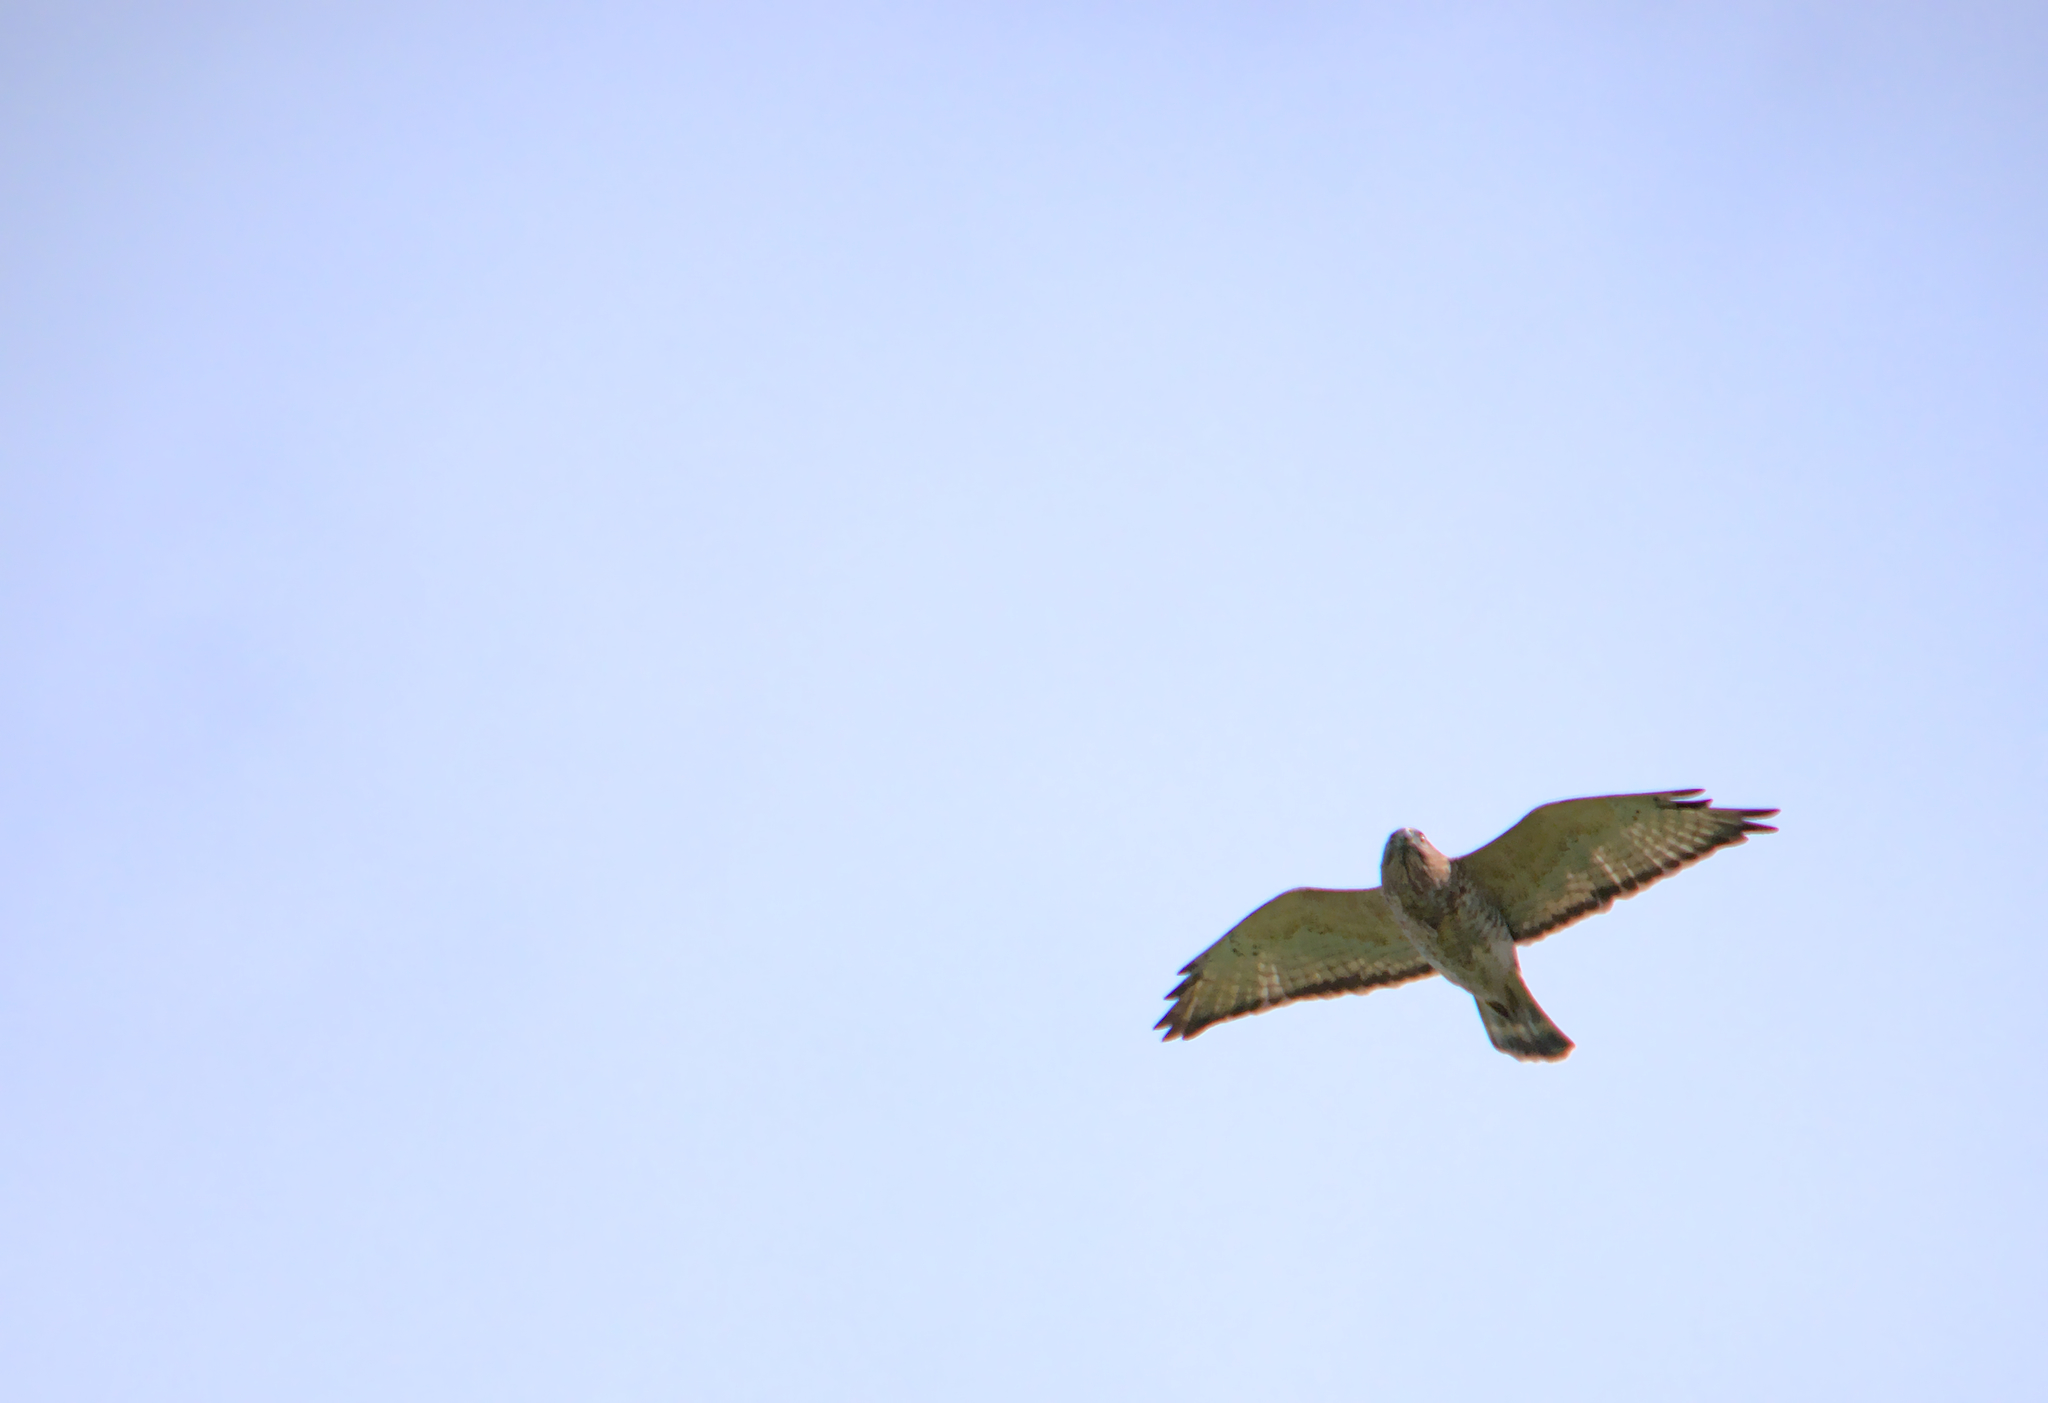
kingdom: Animalia
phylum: Chordata
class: Aves
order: Accipitriformes
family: Accipitridae
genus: Buteo
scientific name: Buteo platypterus
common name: Broad-winged hawk
